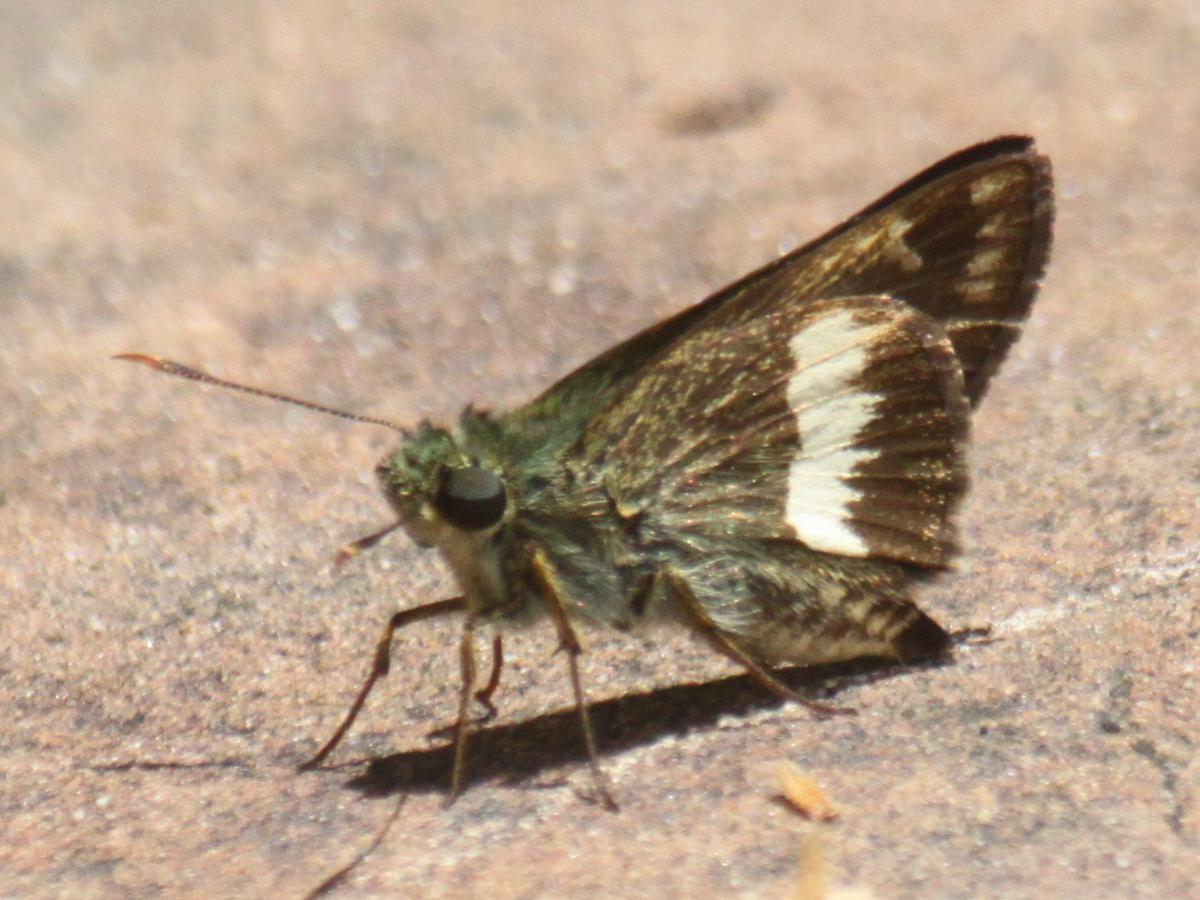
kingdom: Animalia
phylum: Arthropoda
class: Insecta
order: Lepidoptera
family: Hesperiidae
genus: Halpe
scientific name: Halpe zola
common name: Long-banded ace
